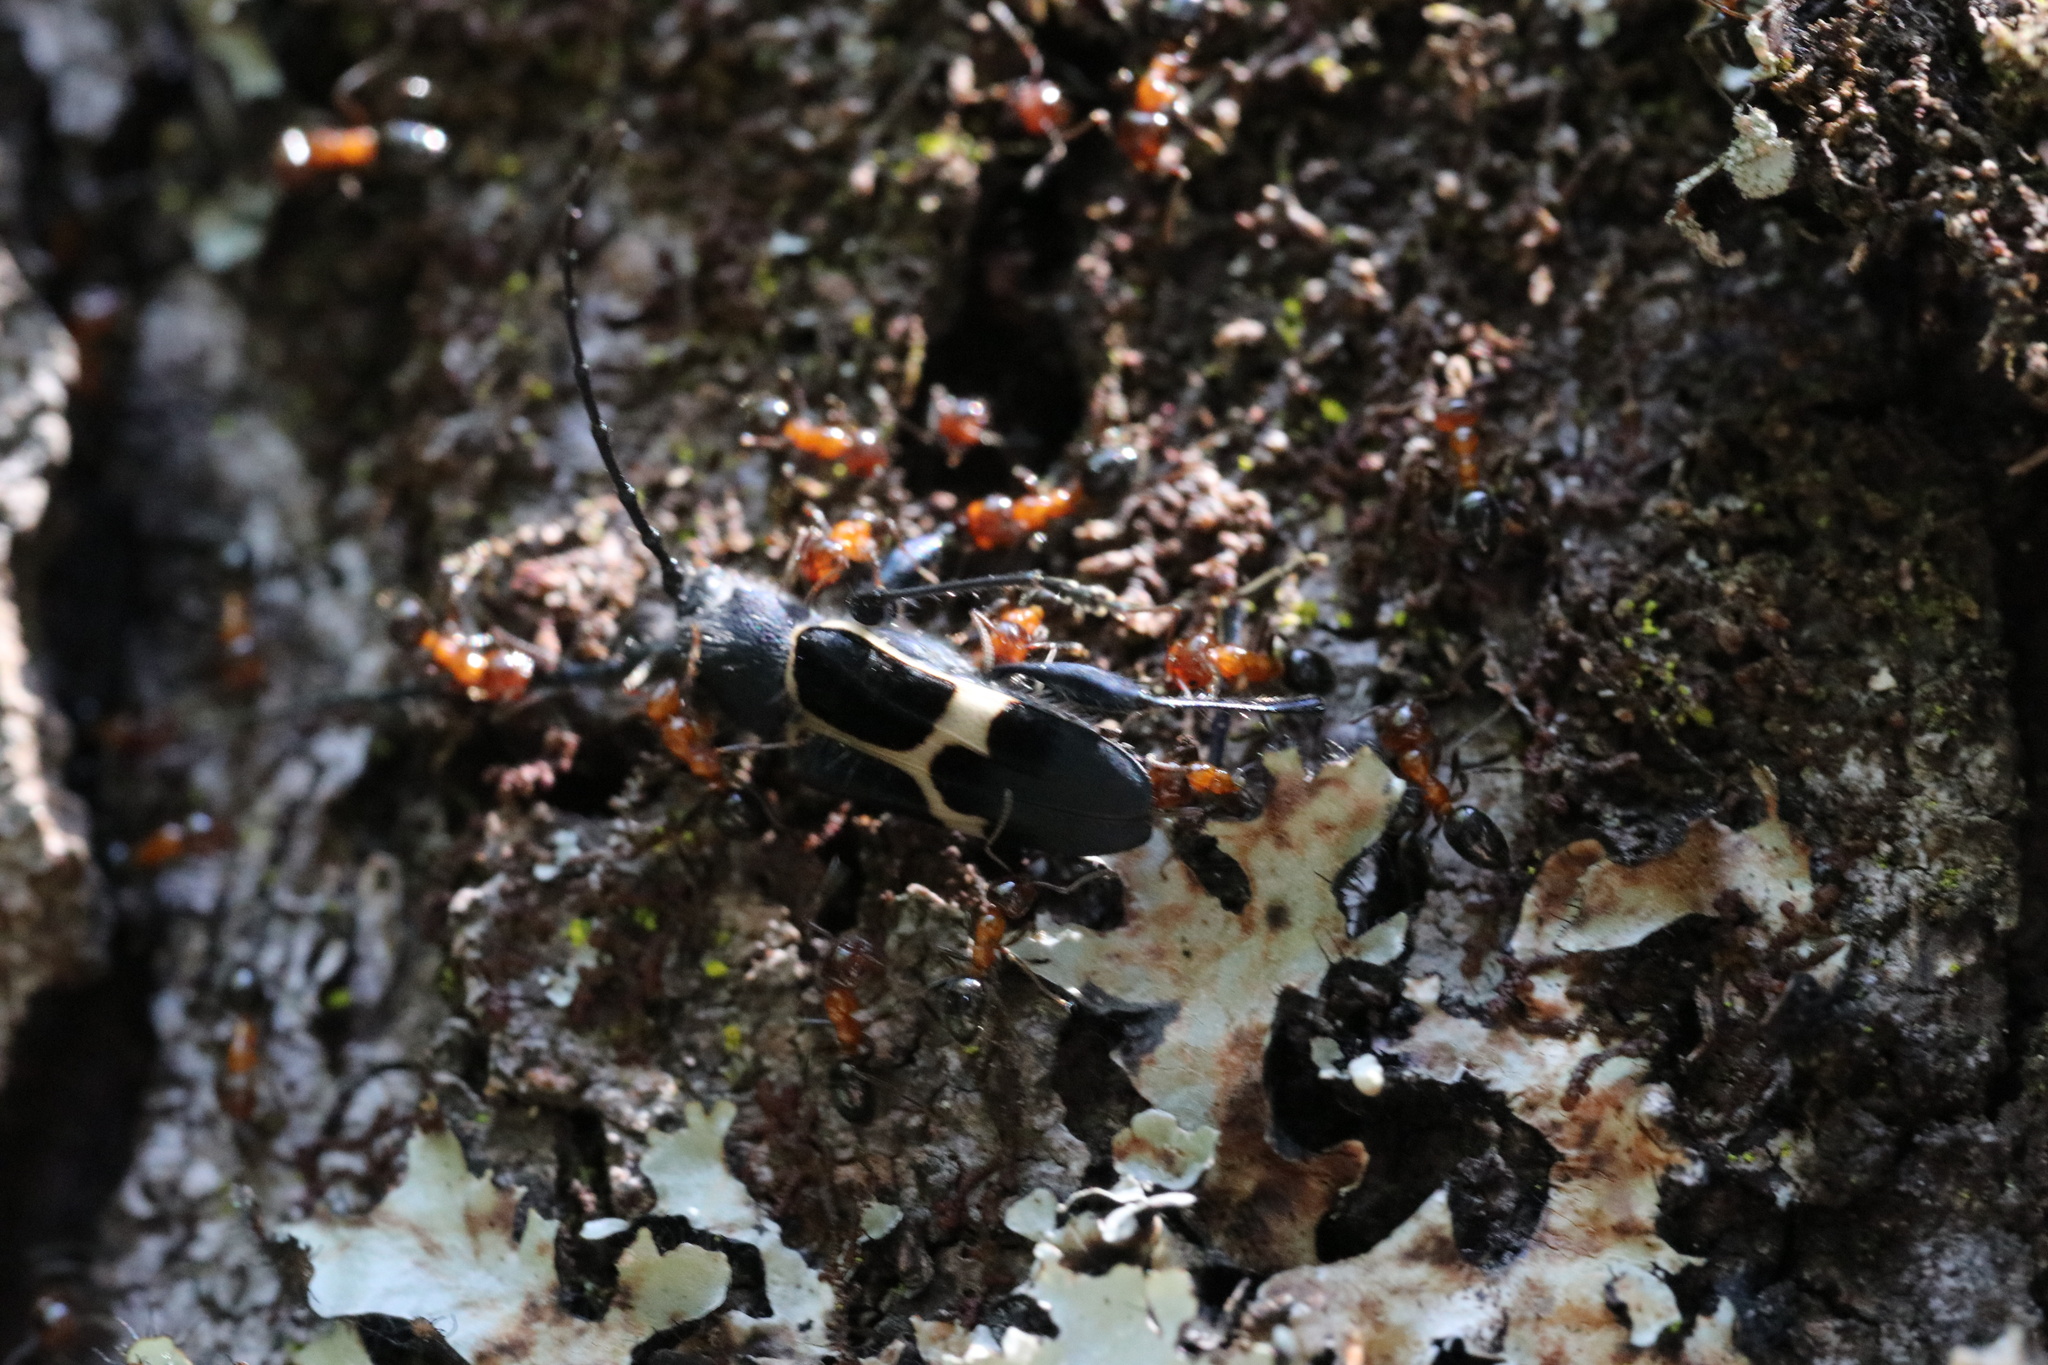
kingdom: Animalia
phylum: Arthropoda
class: Insecta
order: Coleoptera
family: Cerambycidae
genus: Calydon
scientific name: Calydon submetallicum
